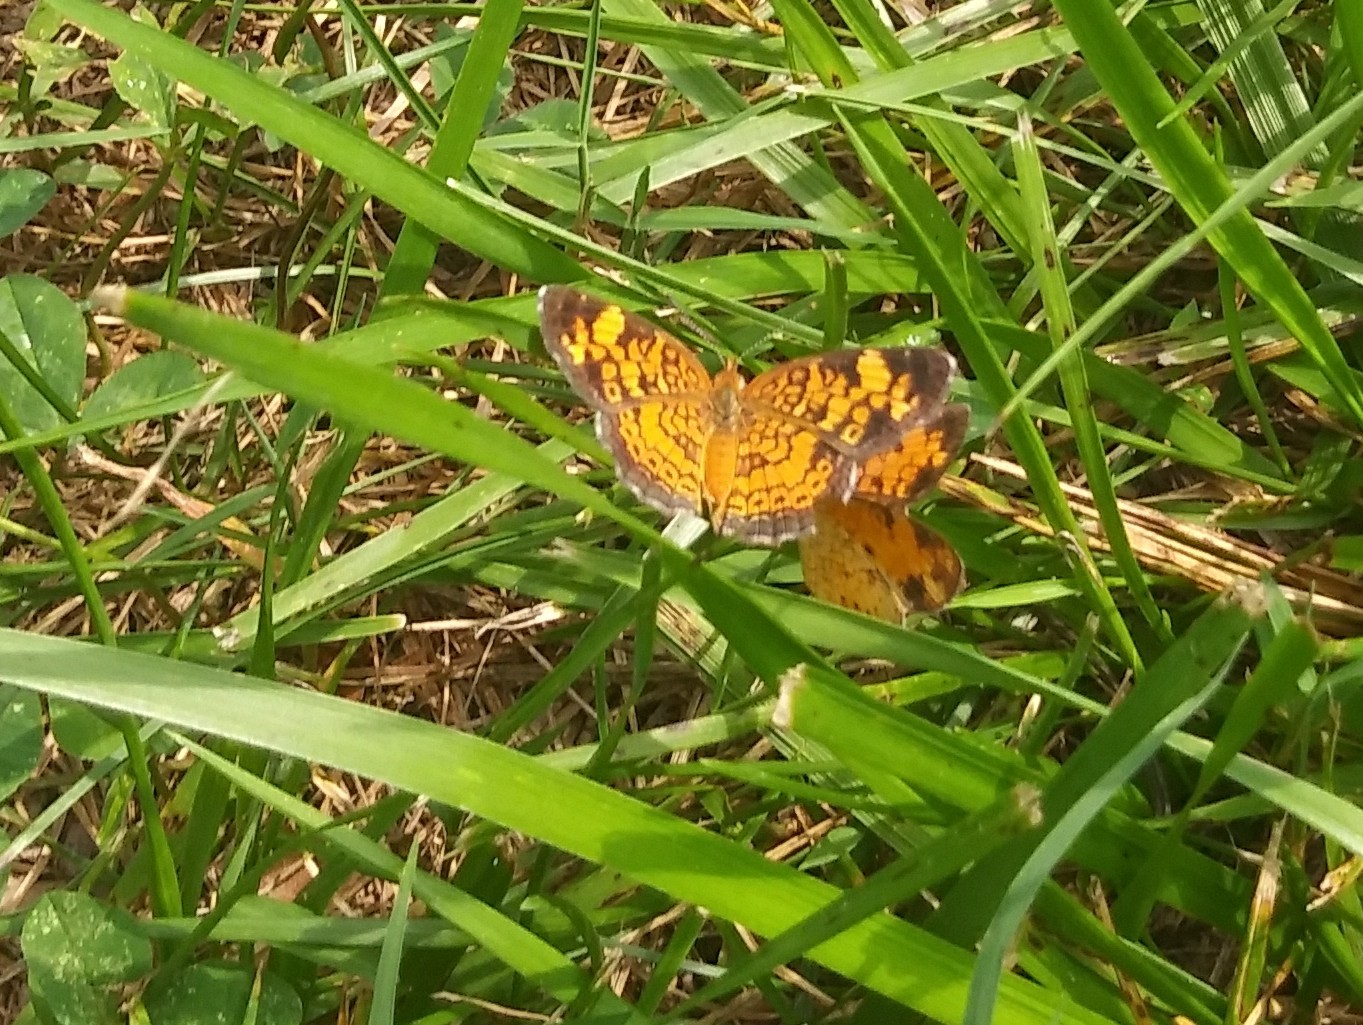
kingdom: Animalia
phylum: Arthropoda
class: Insecta
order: Lepidoptera
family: Nymphalidae
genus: Phyciodes
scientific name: Phyciodes tharos
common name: Pearl crescent
